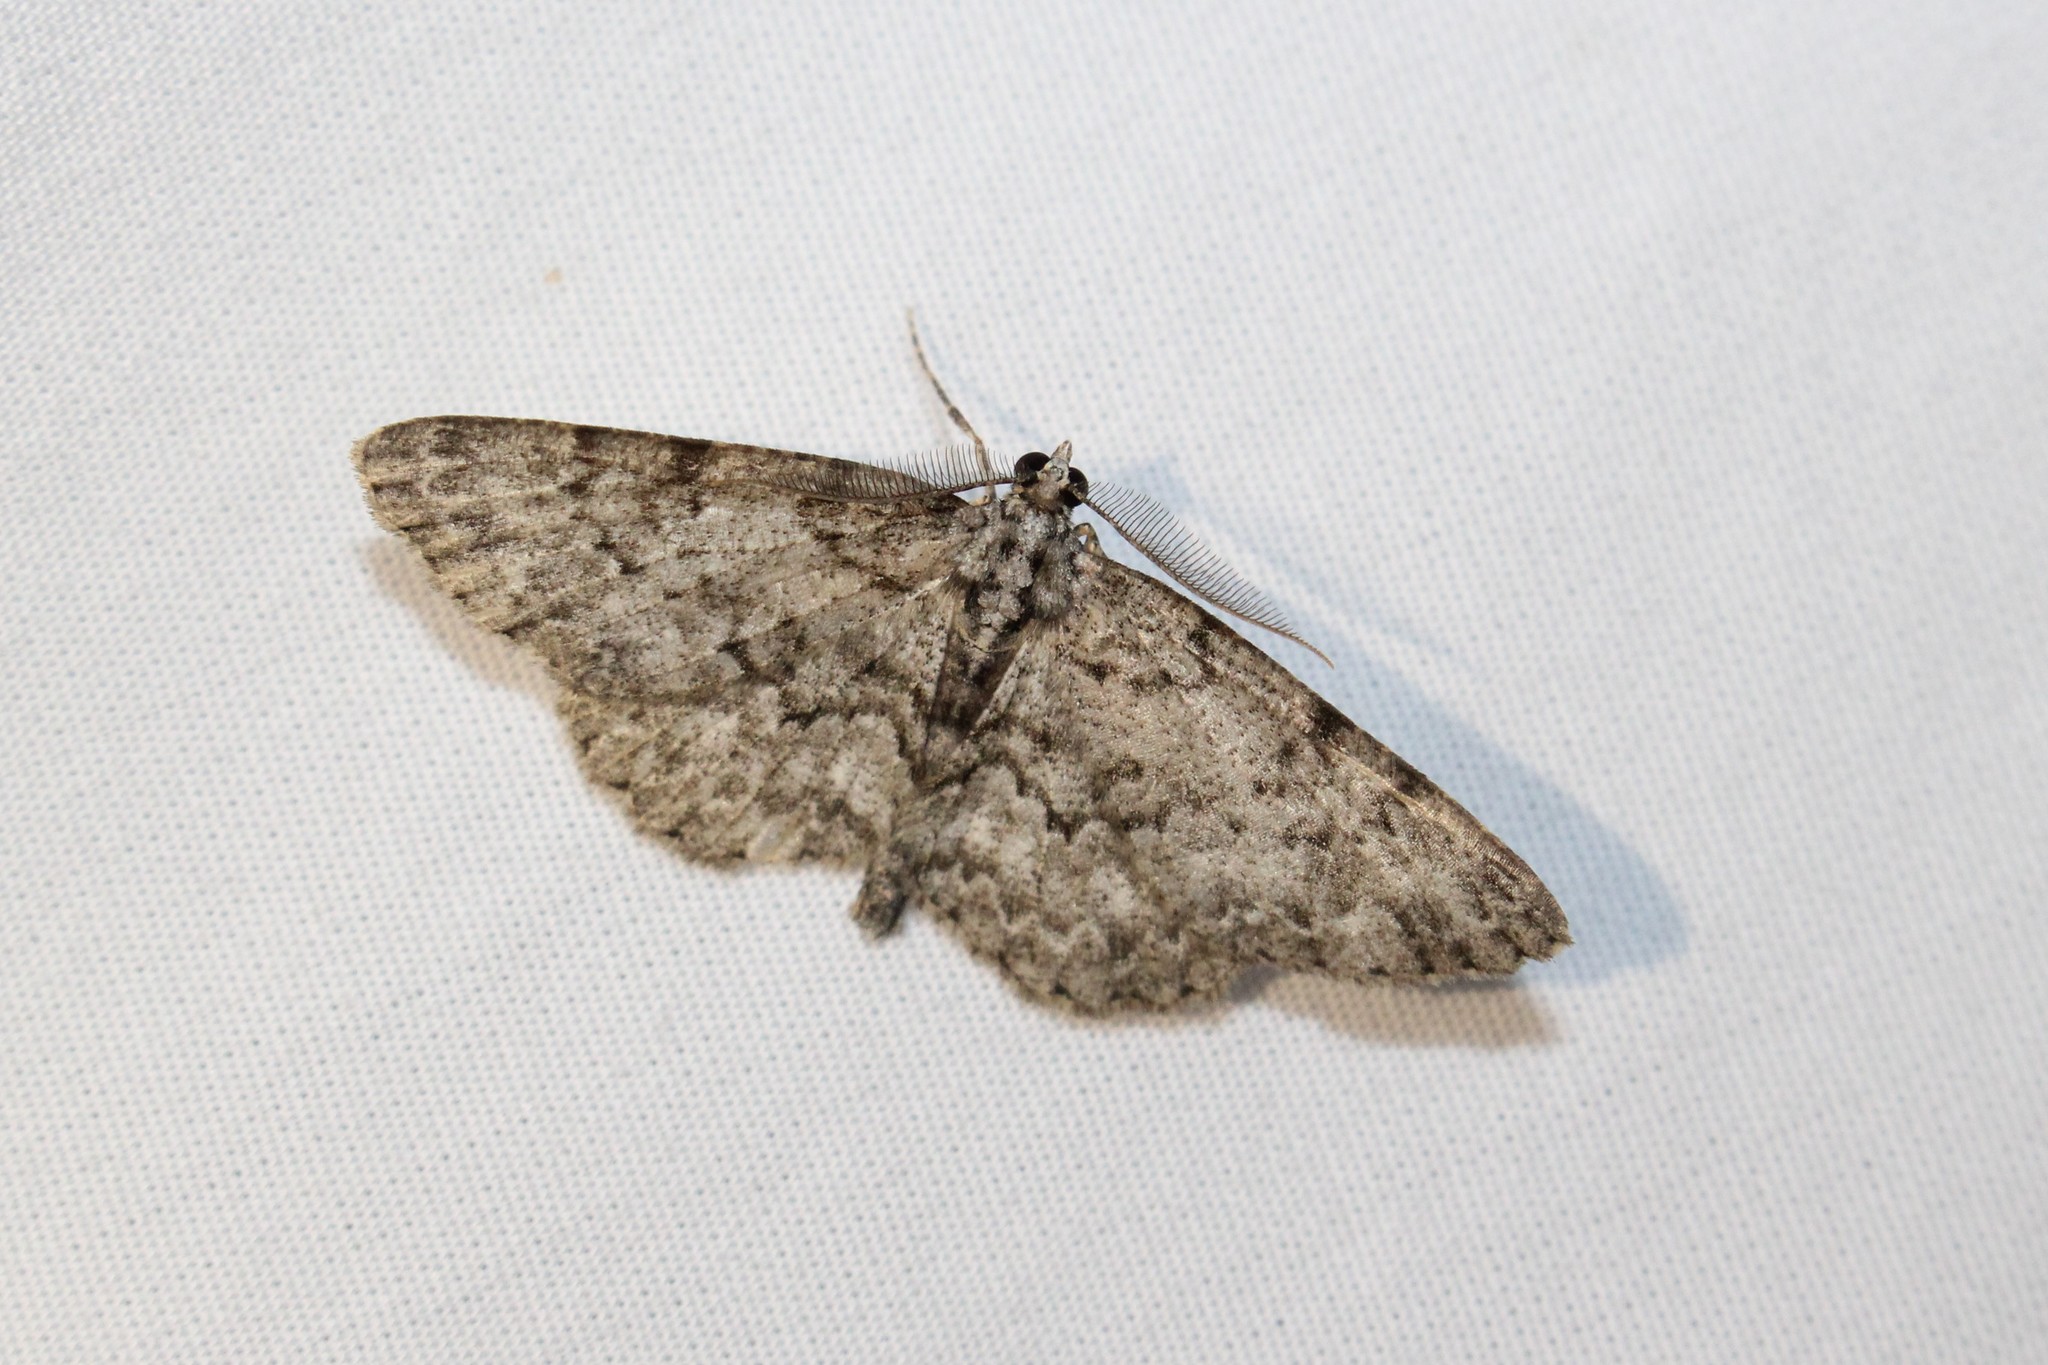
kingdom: Animalia
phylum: Arthropoda
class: Insecta
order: Lepidoptera
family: Geometridae
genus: Protoboarmia
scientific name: Protoboarmia porcelaria
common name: Porcelain gray
